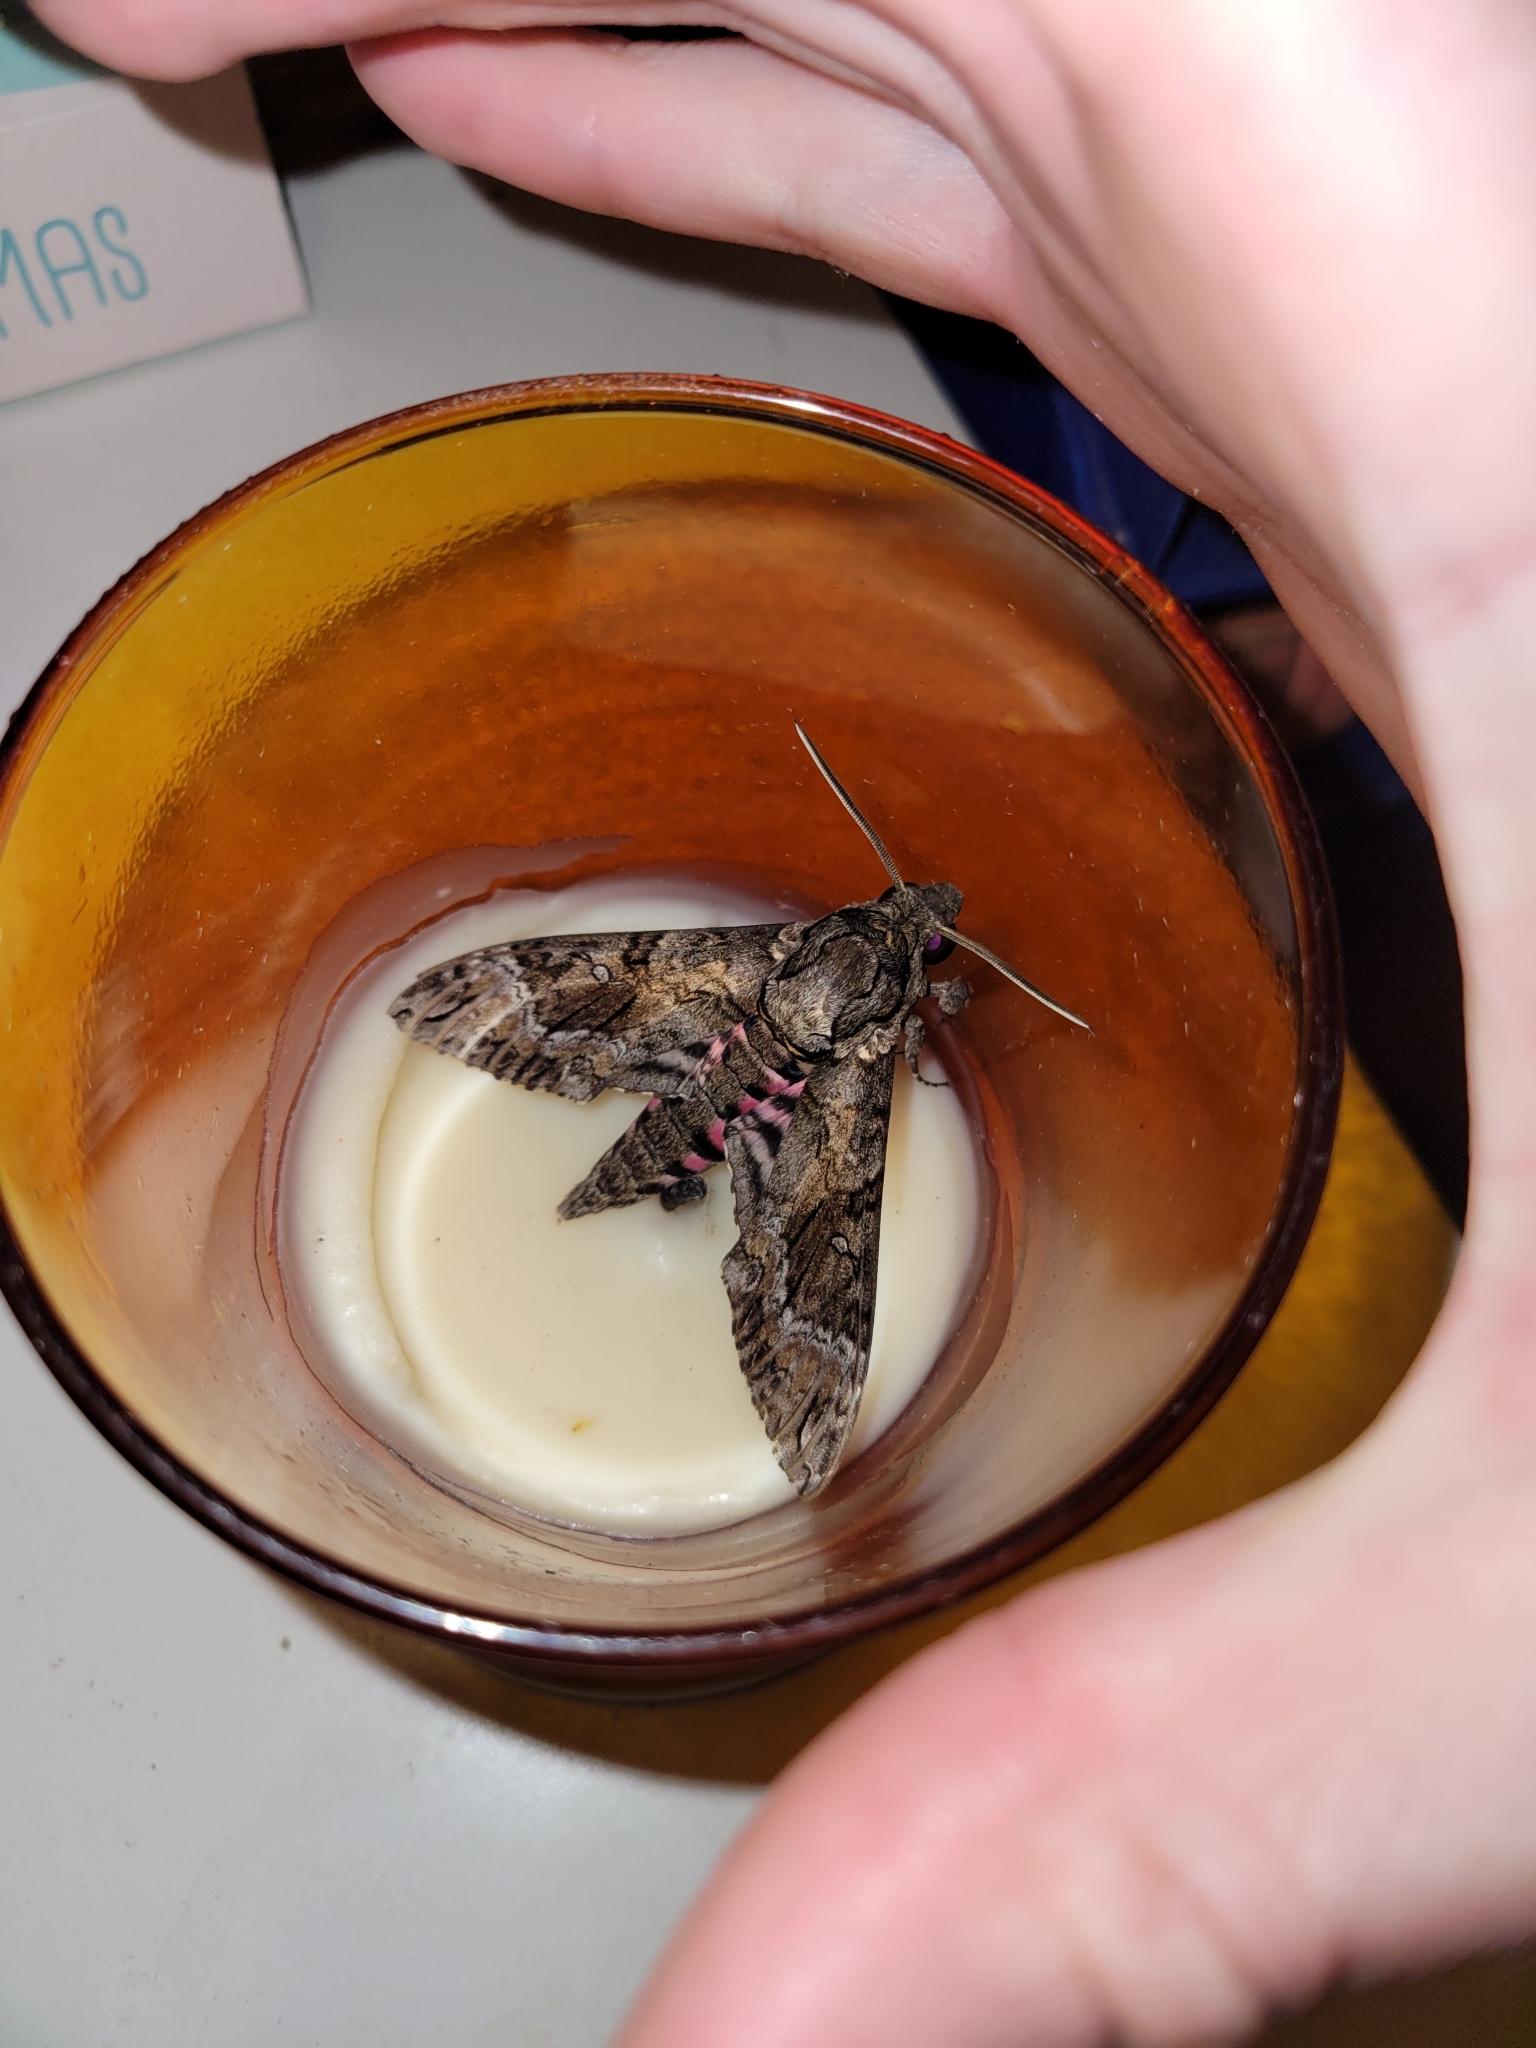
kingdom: Animalia
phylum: Arthropoda
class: Insecta
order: Lepidoptera
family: Sphingidae
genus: Agrius
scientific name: Agrius cingulata
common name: Pink-spotted hawkmoth
